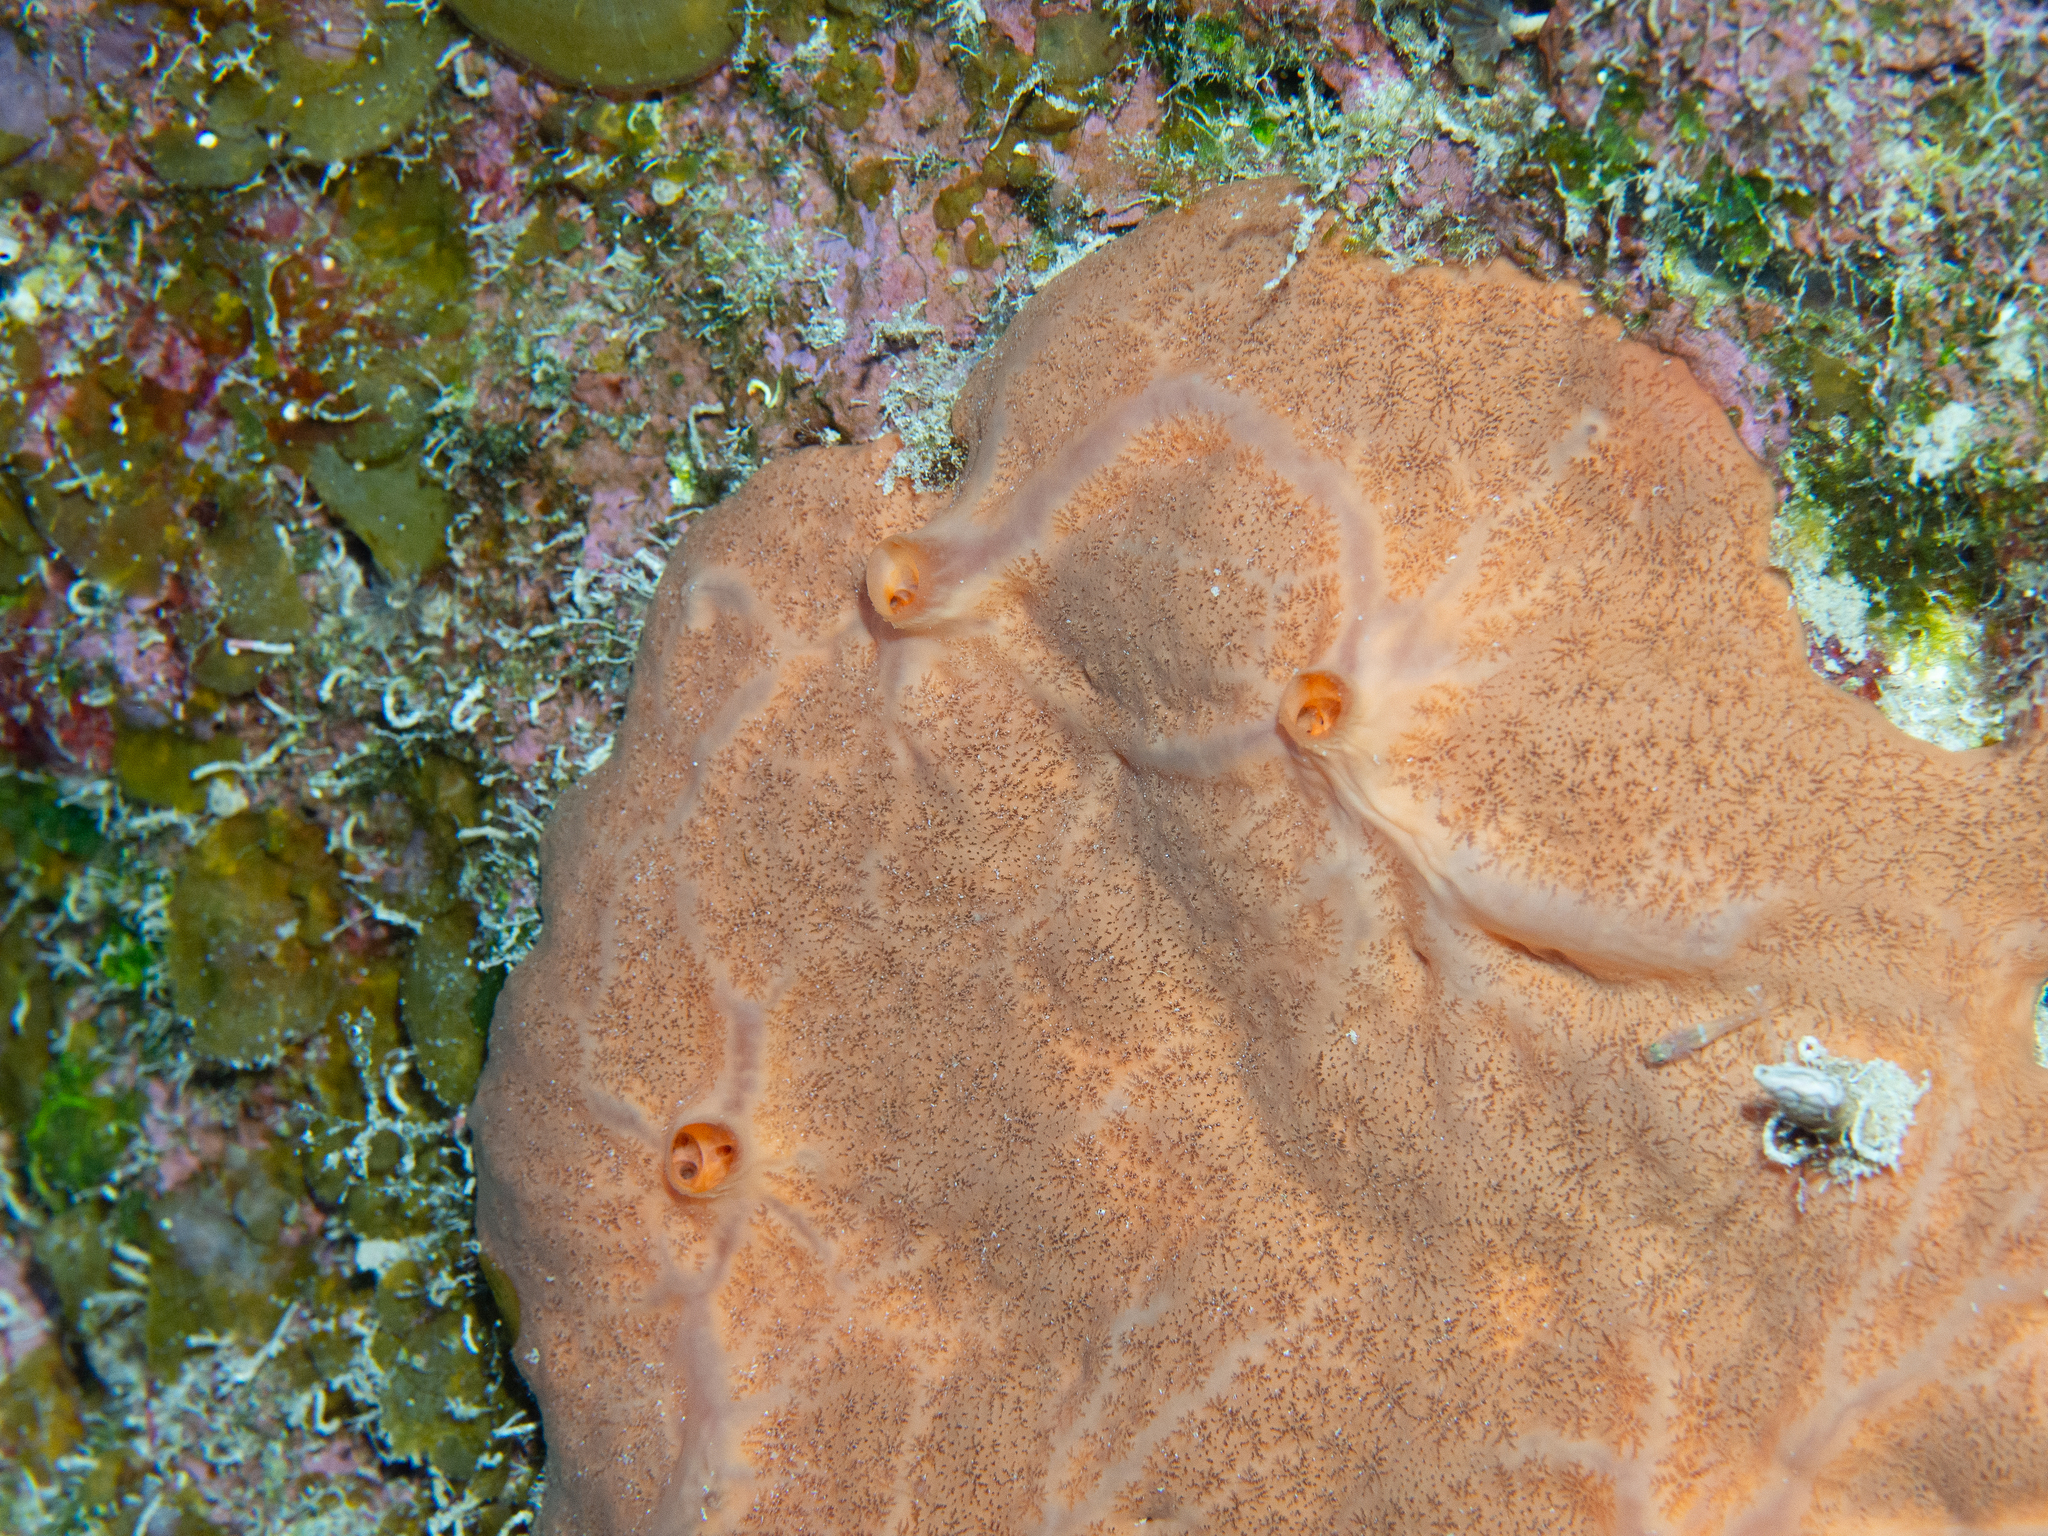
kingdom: Animalia
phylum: Porifera
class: Demospongiae
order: Clionaida
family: Spirastrellidae
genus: Spirastrella
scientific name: Spirastrella hartmani
